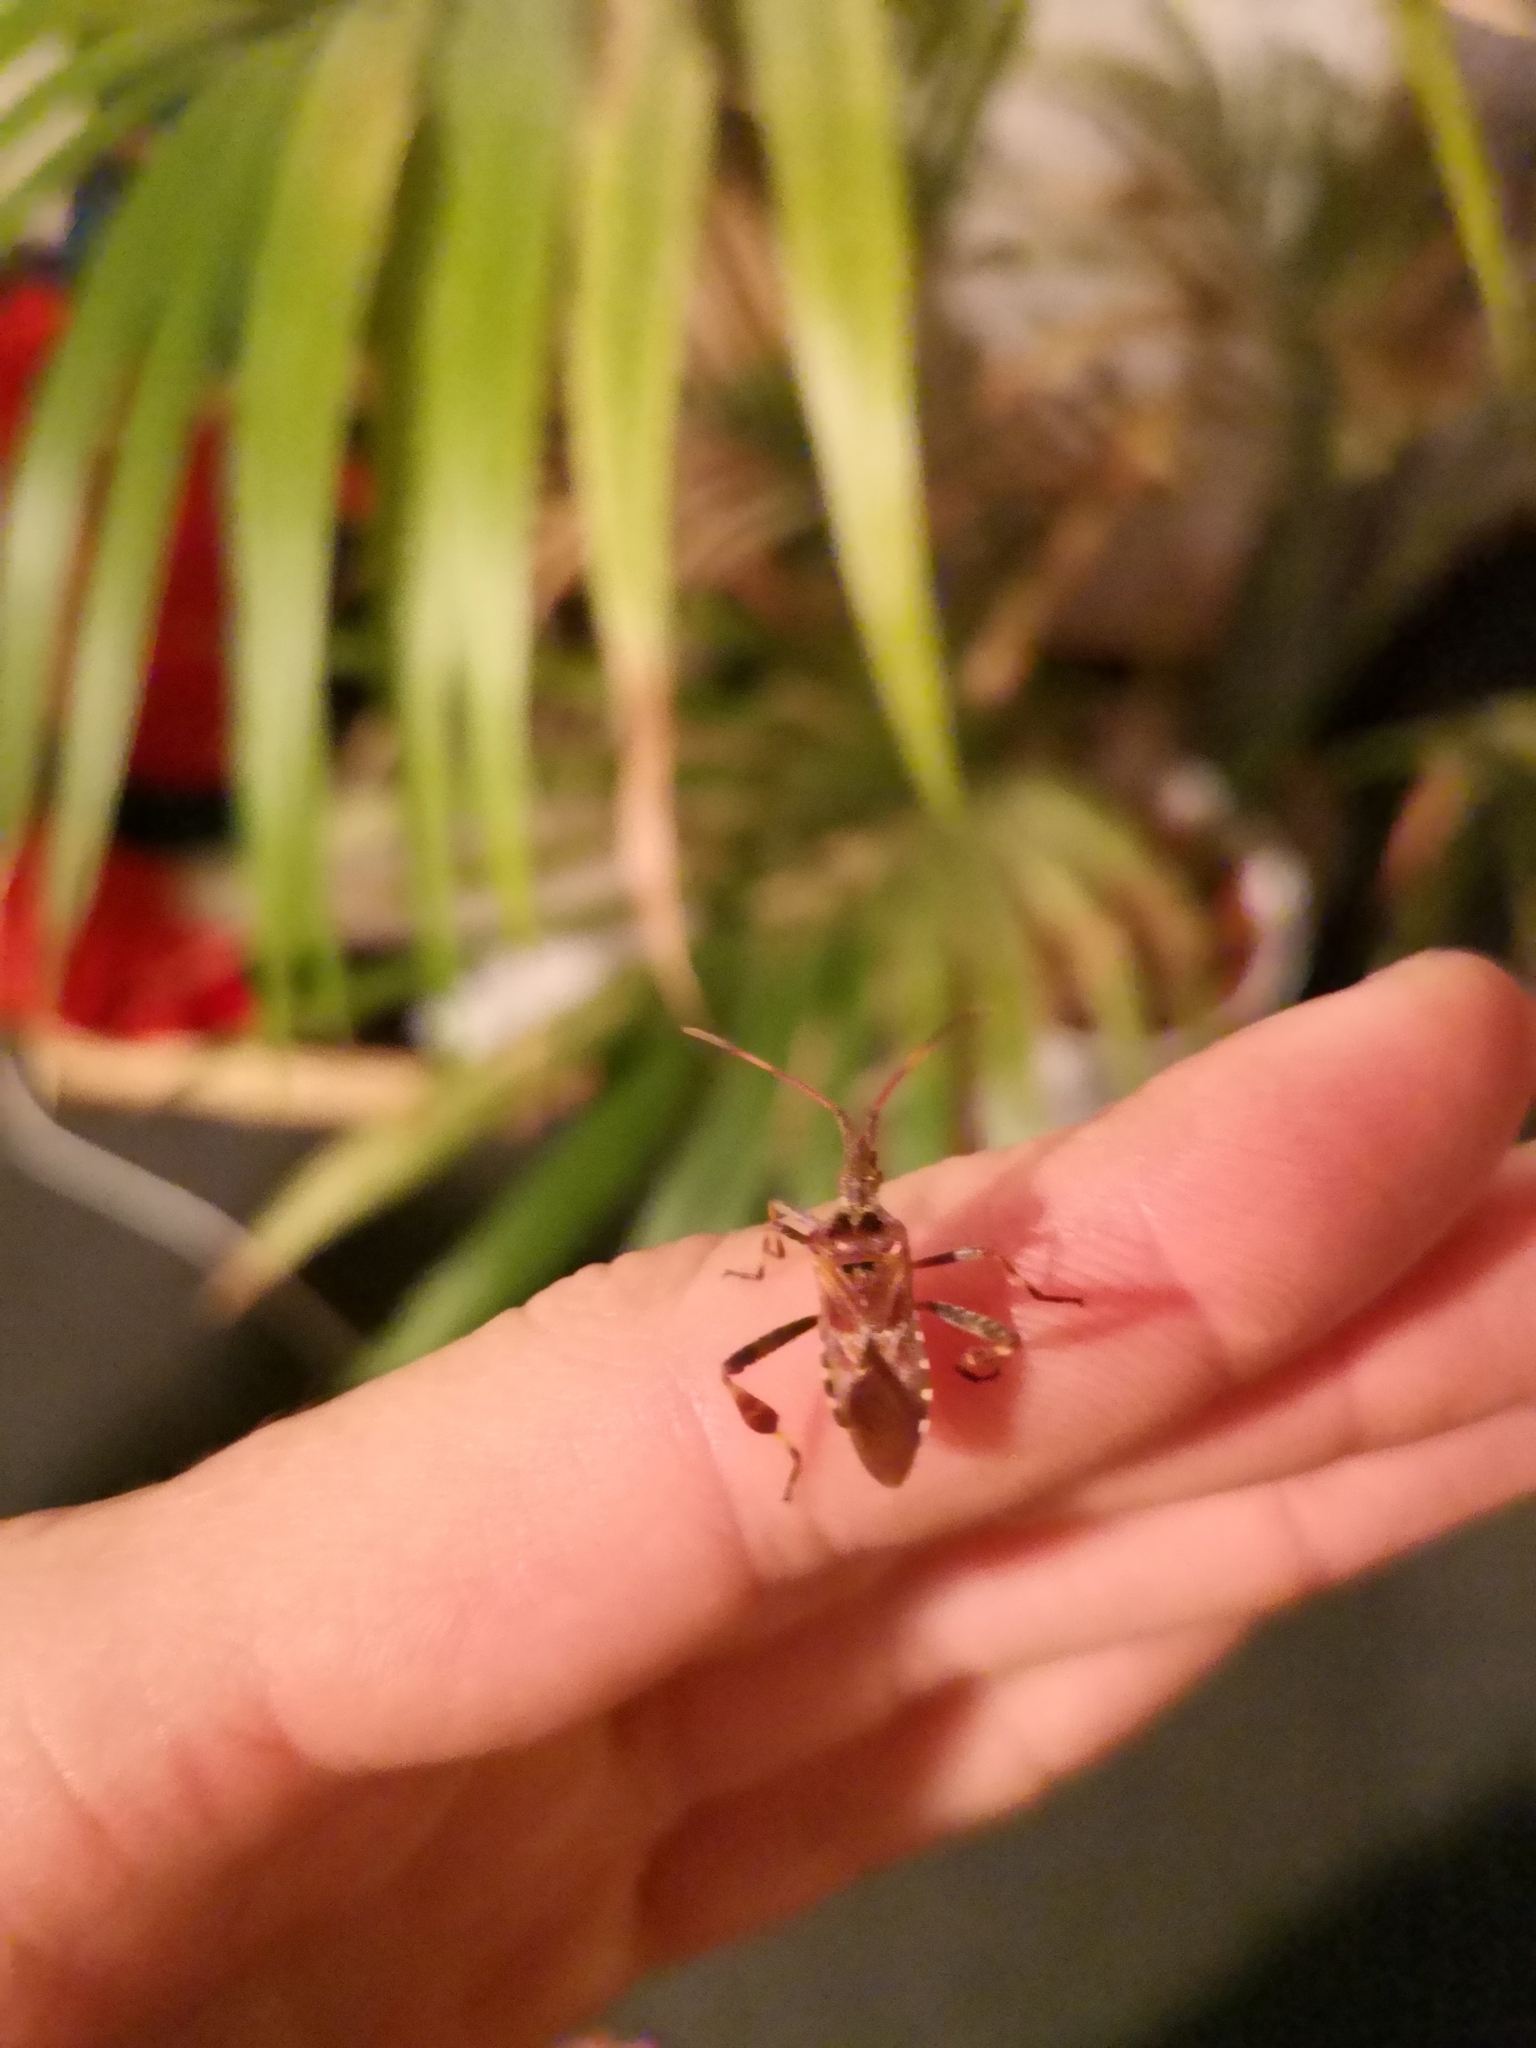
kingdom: Animalia
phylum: Arthropoda
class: Insecta
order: Hemiptera
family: Coreidae
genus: Leptoglossus
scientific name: Leptoglossus occidentalis
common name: Western conifer-seed bug
